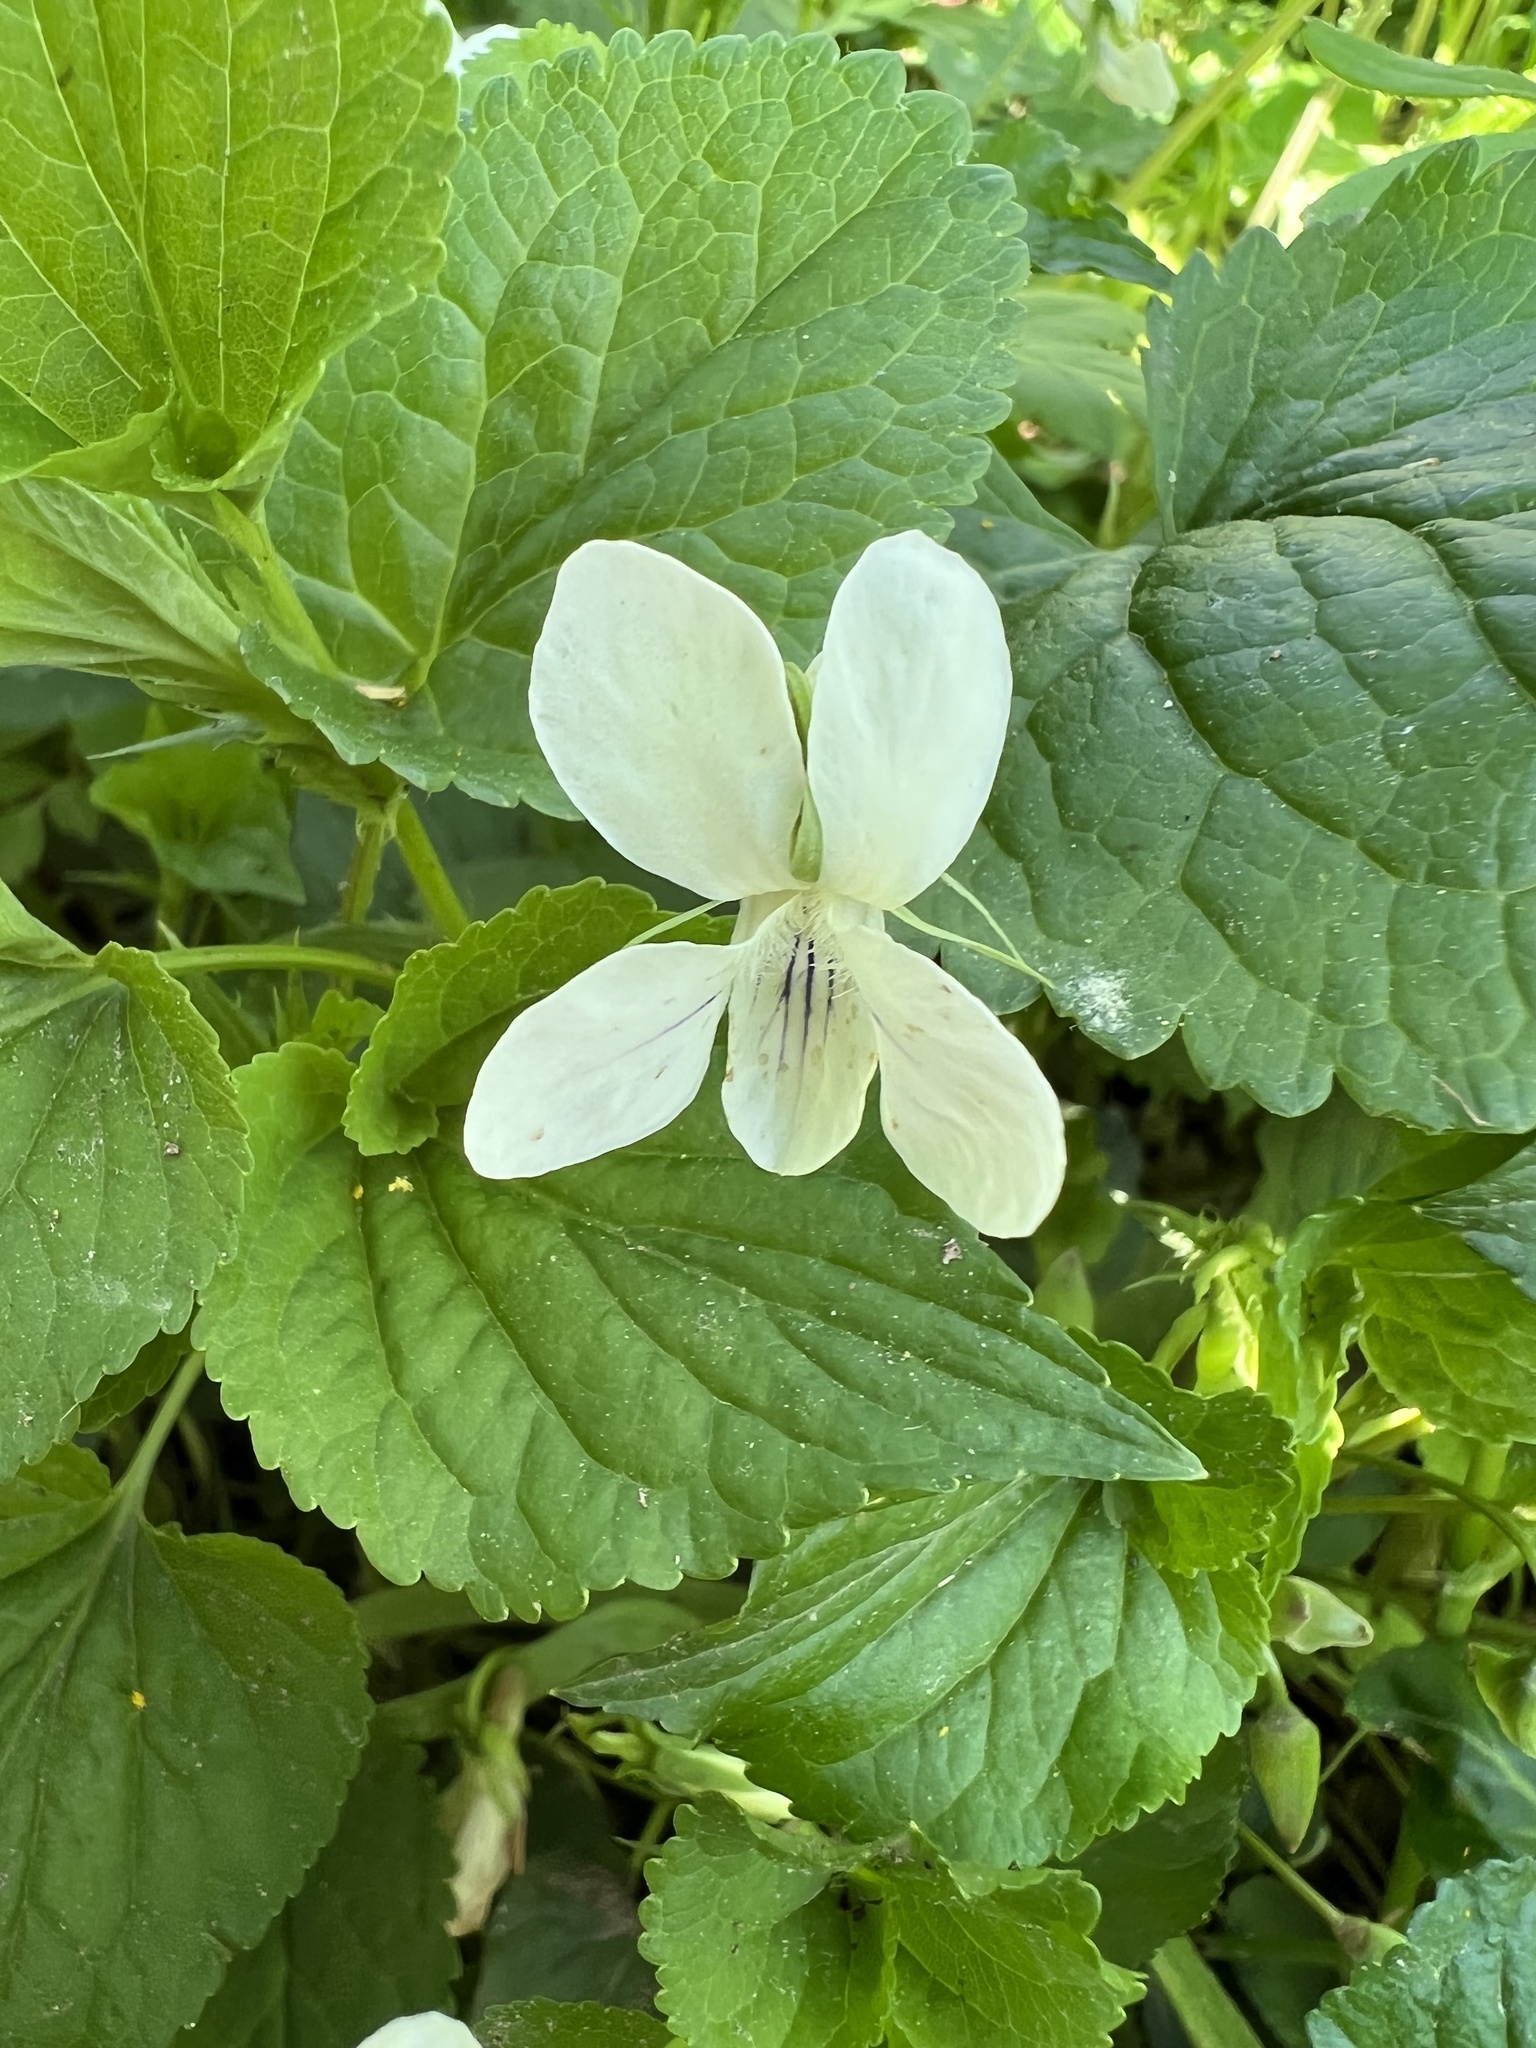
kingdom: Plantae
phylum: Tracheophyta
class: Magnoliopsida
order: Malpighiales
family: Violaceae
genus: Viola
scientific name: Viola striata
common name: Cream violet
